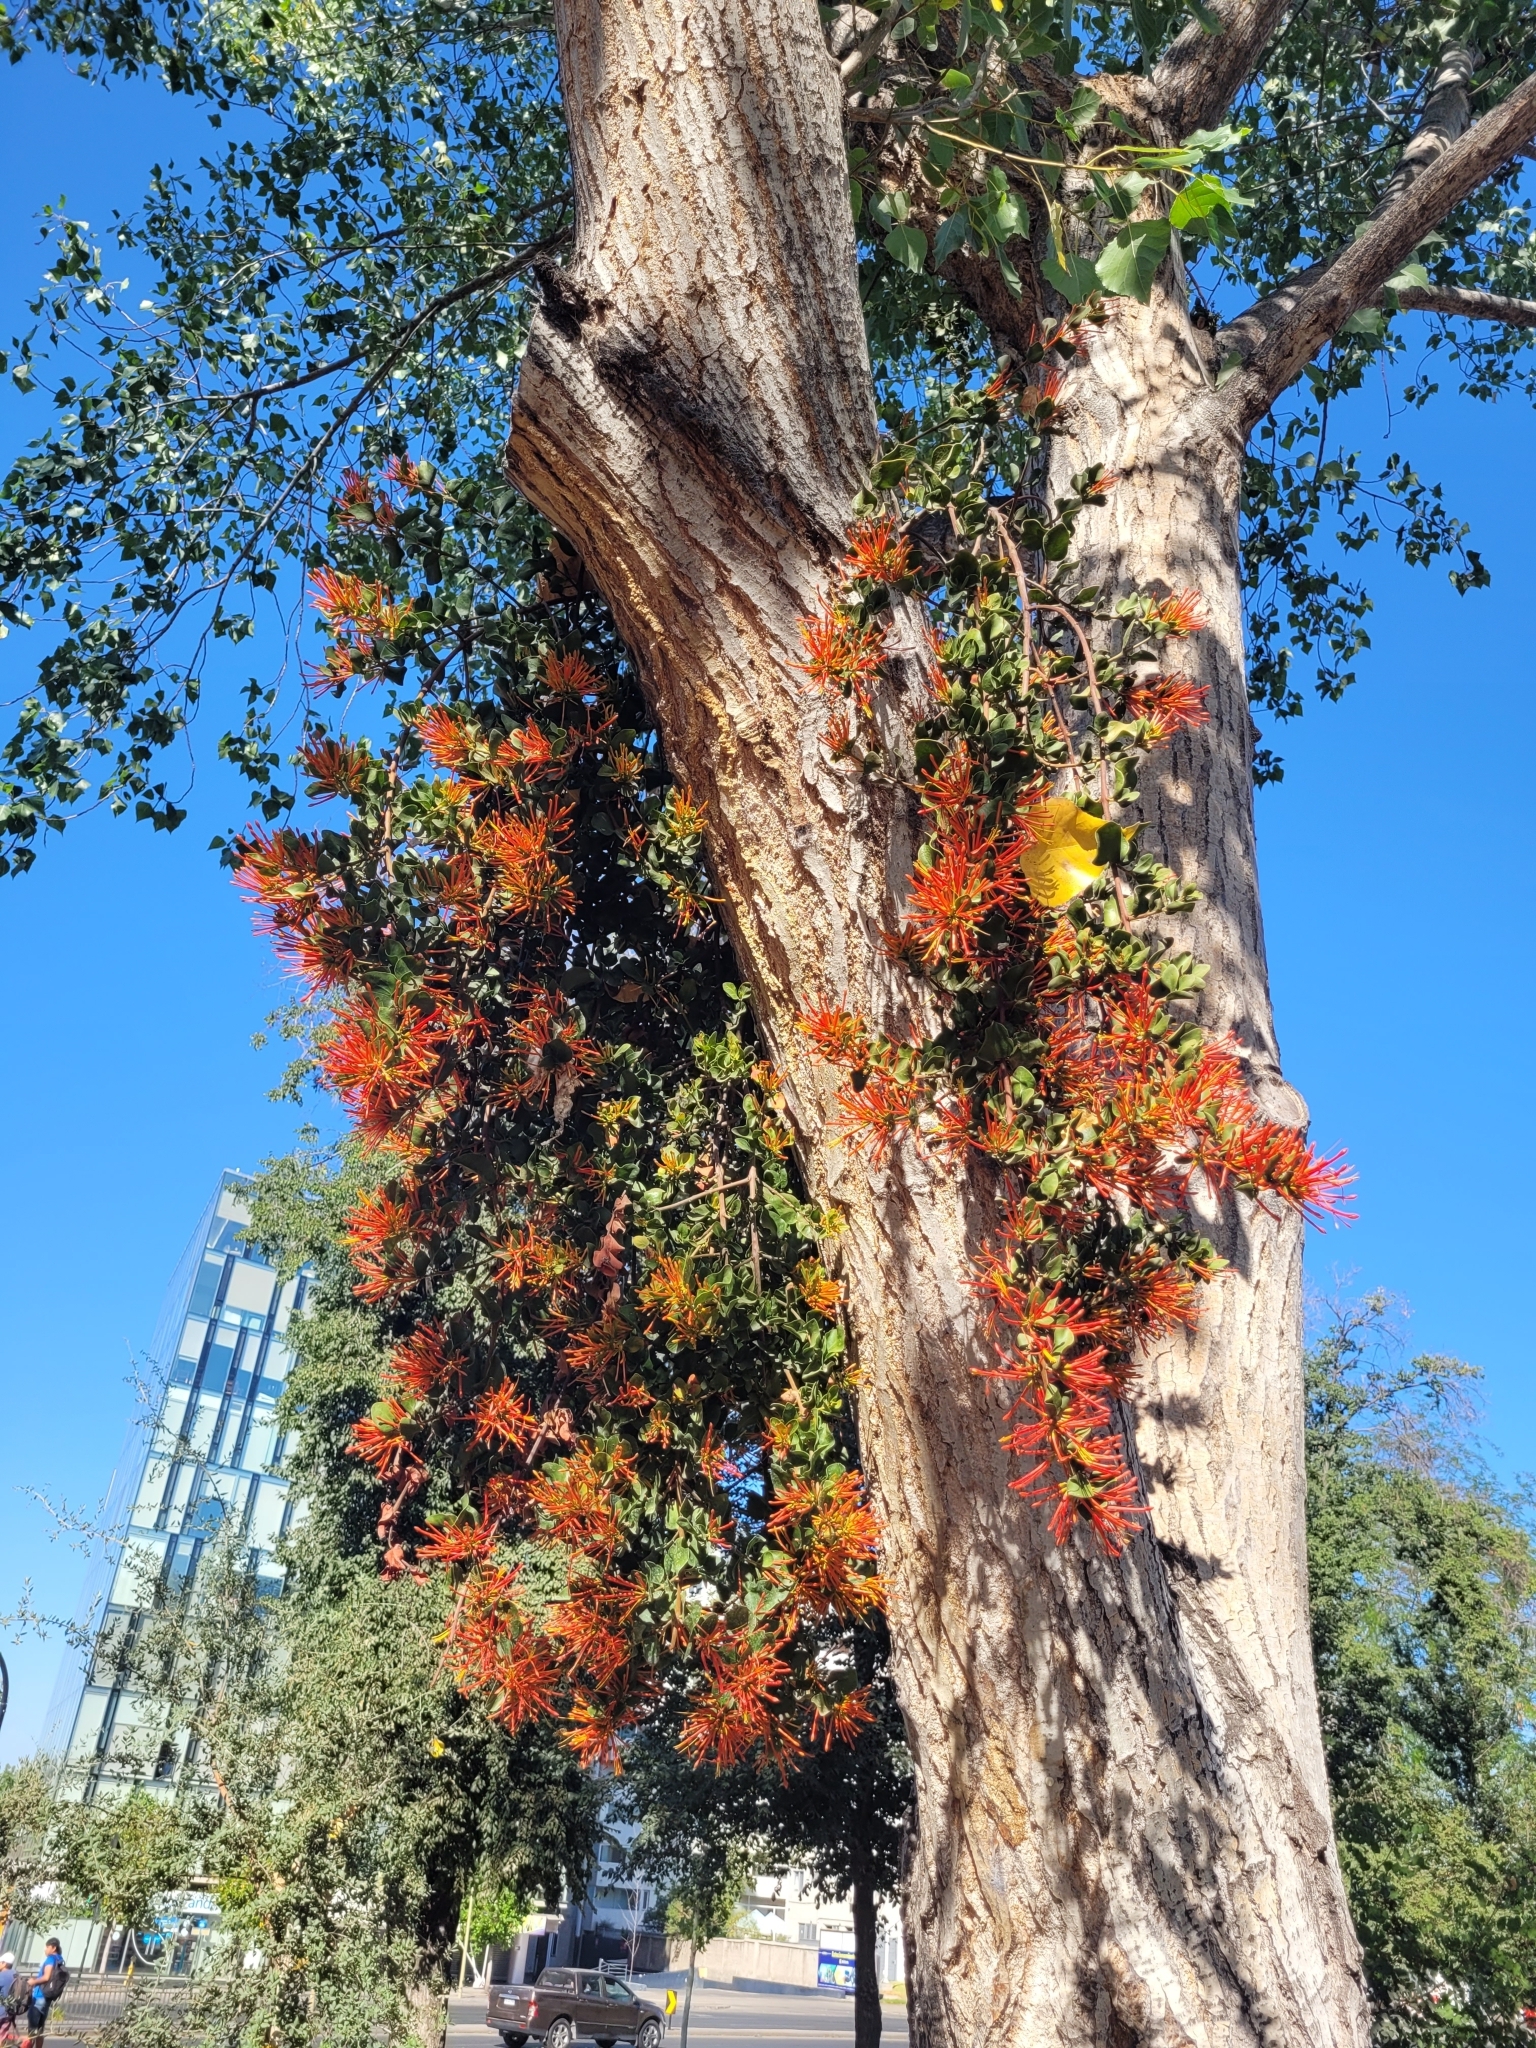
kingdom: Plantae
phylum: Tracheophyta
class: Magnoliopsida
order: Santalales
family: Loranthaceae
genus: Tristerix
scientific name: Tristerix corymbosus
